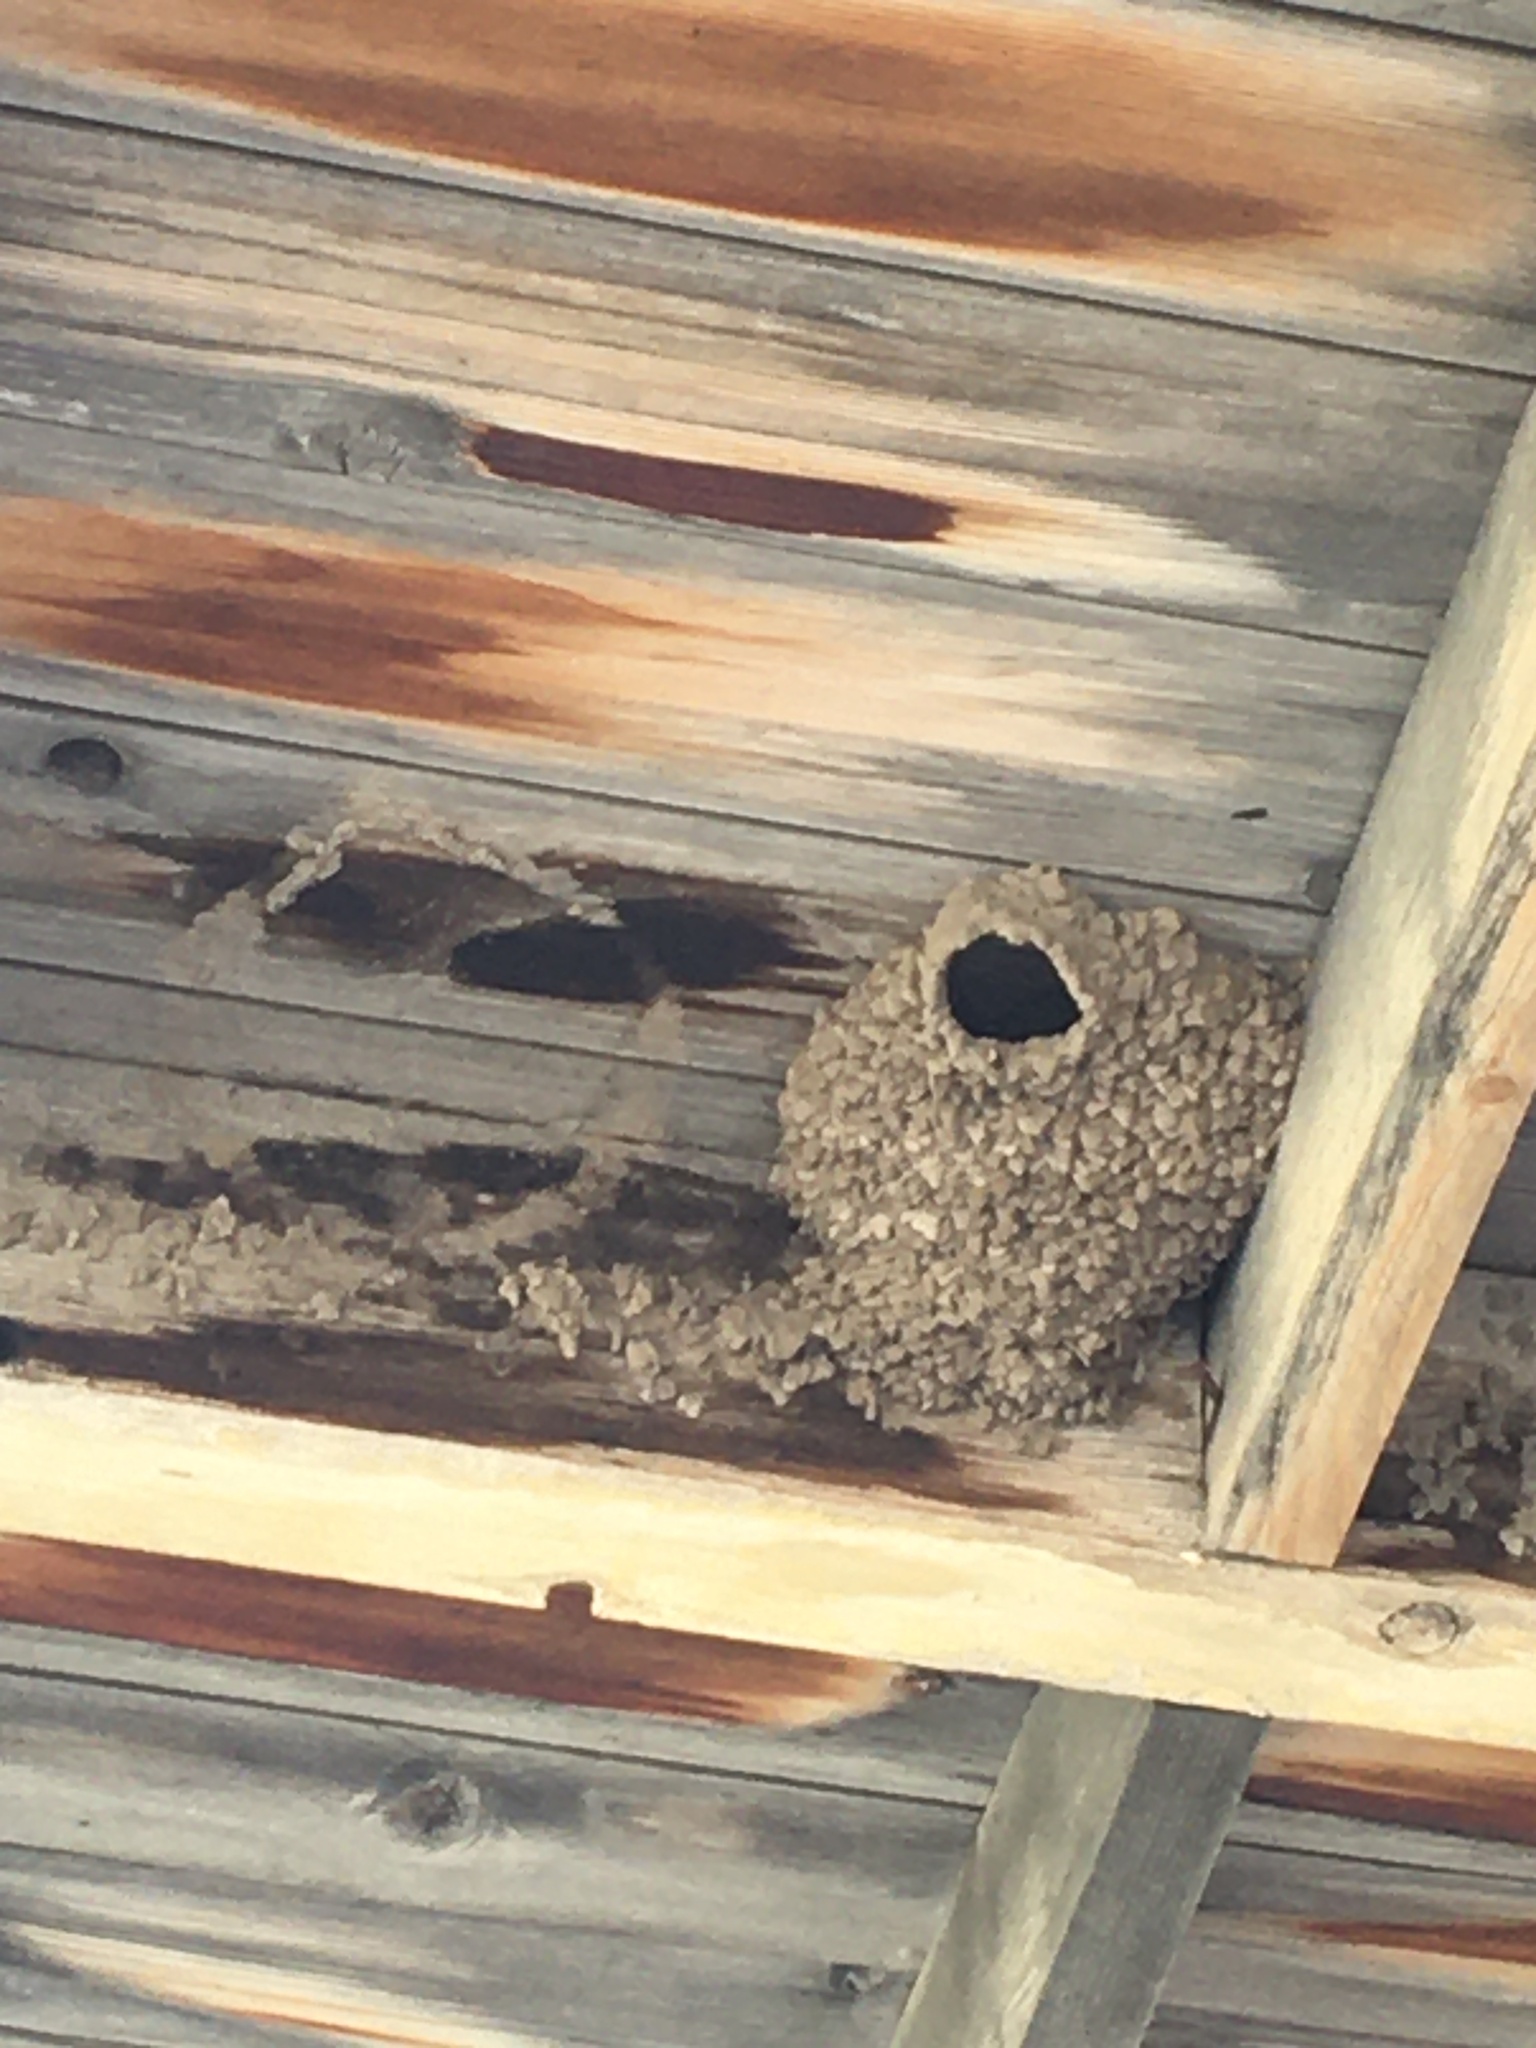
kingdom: Animalia
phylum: Chordata
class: Aves
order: Passeriformes
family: Hirundinidae
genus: Petrochelidon
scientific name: Petrochelidon pyrrhonota
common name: American cliff swallow
